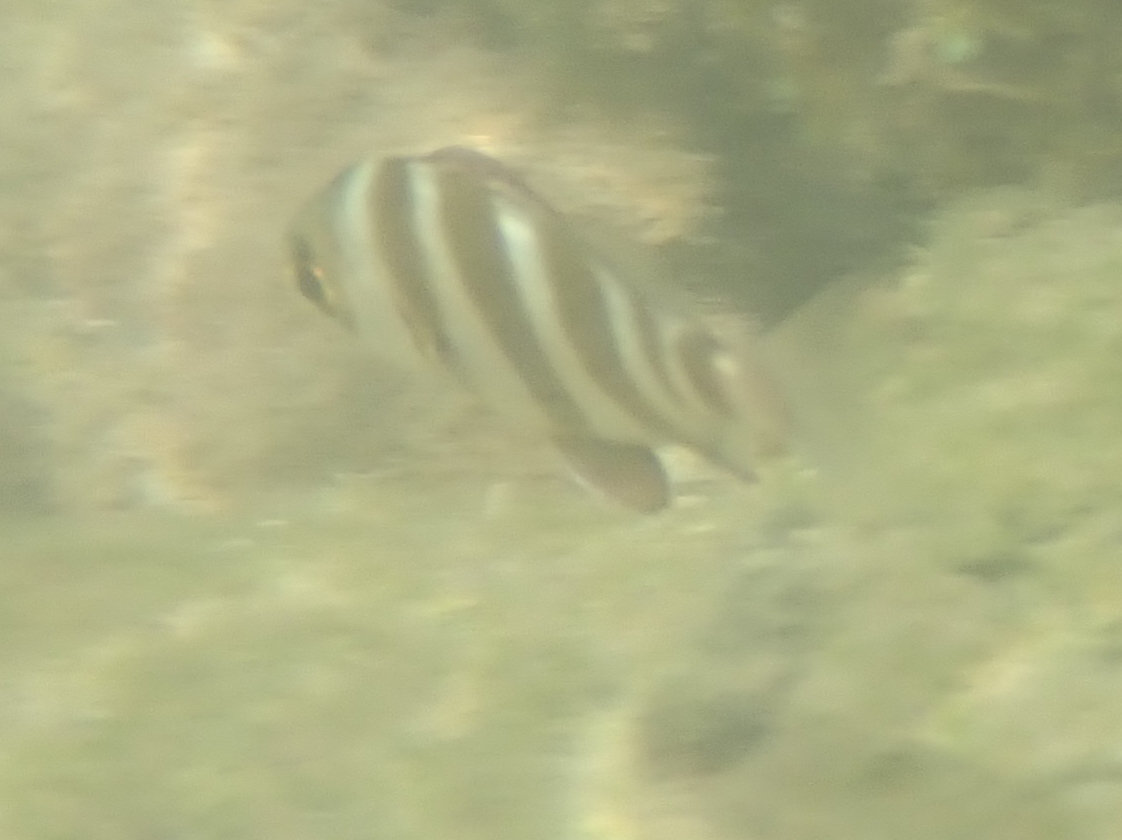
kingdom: Animalia
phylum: Chordata
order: Perciformes
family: Sparidae
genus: Diplodus
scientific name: Diplodus cervinus
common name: Oman porgy
